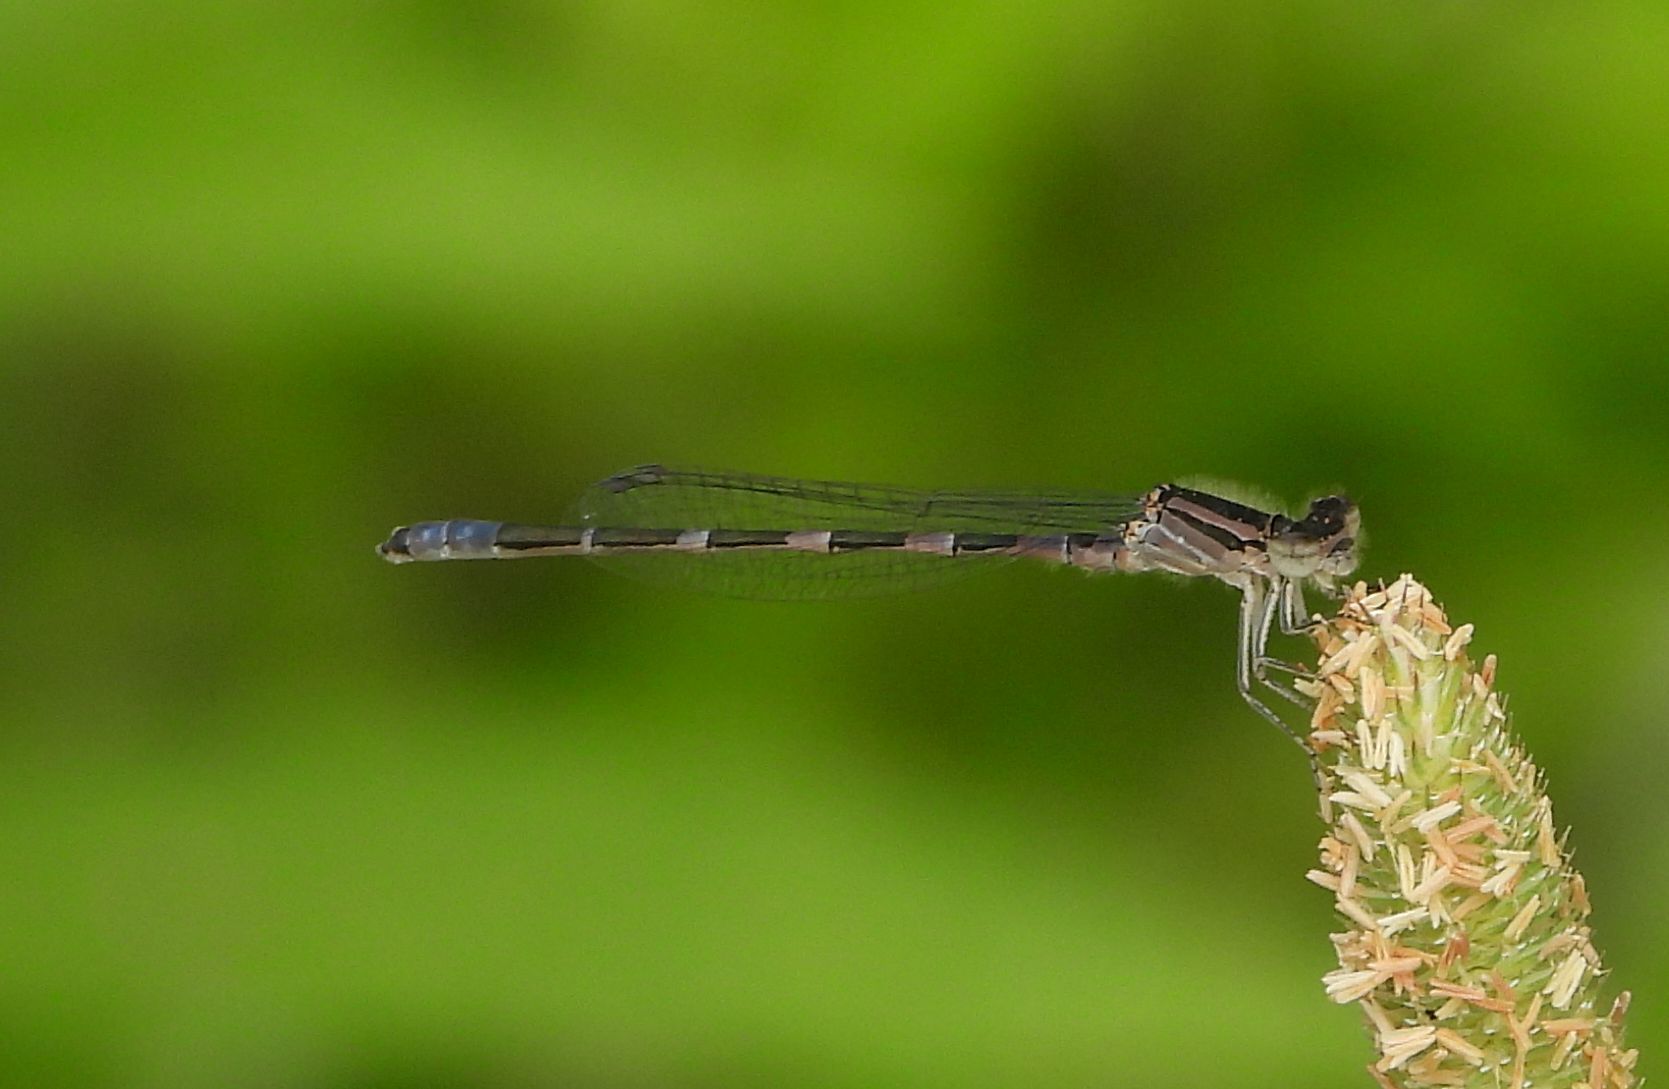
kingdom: Animalia
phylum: Arthropoda
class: Insecta
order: Odonata
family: Coenagrionidae
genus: Enallagma
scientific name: Enallagma carunculatum
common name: Tule bluet
